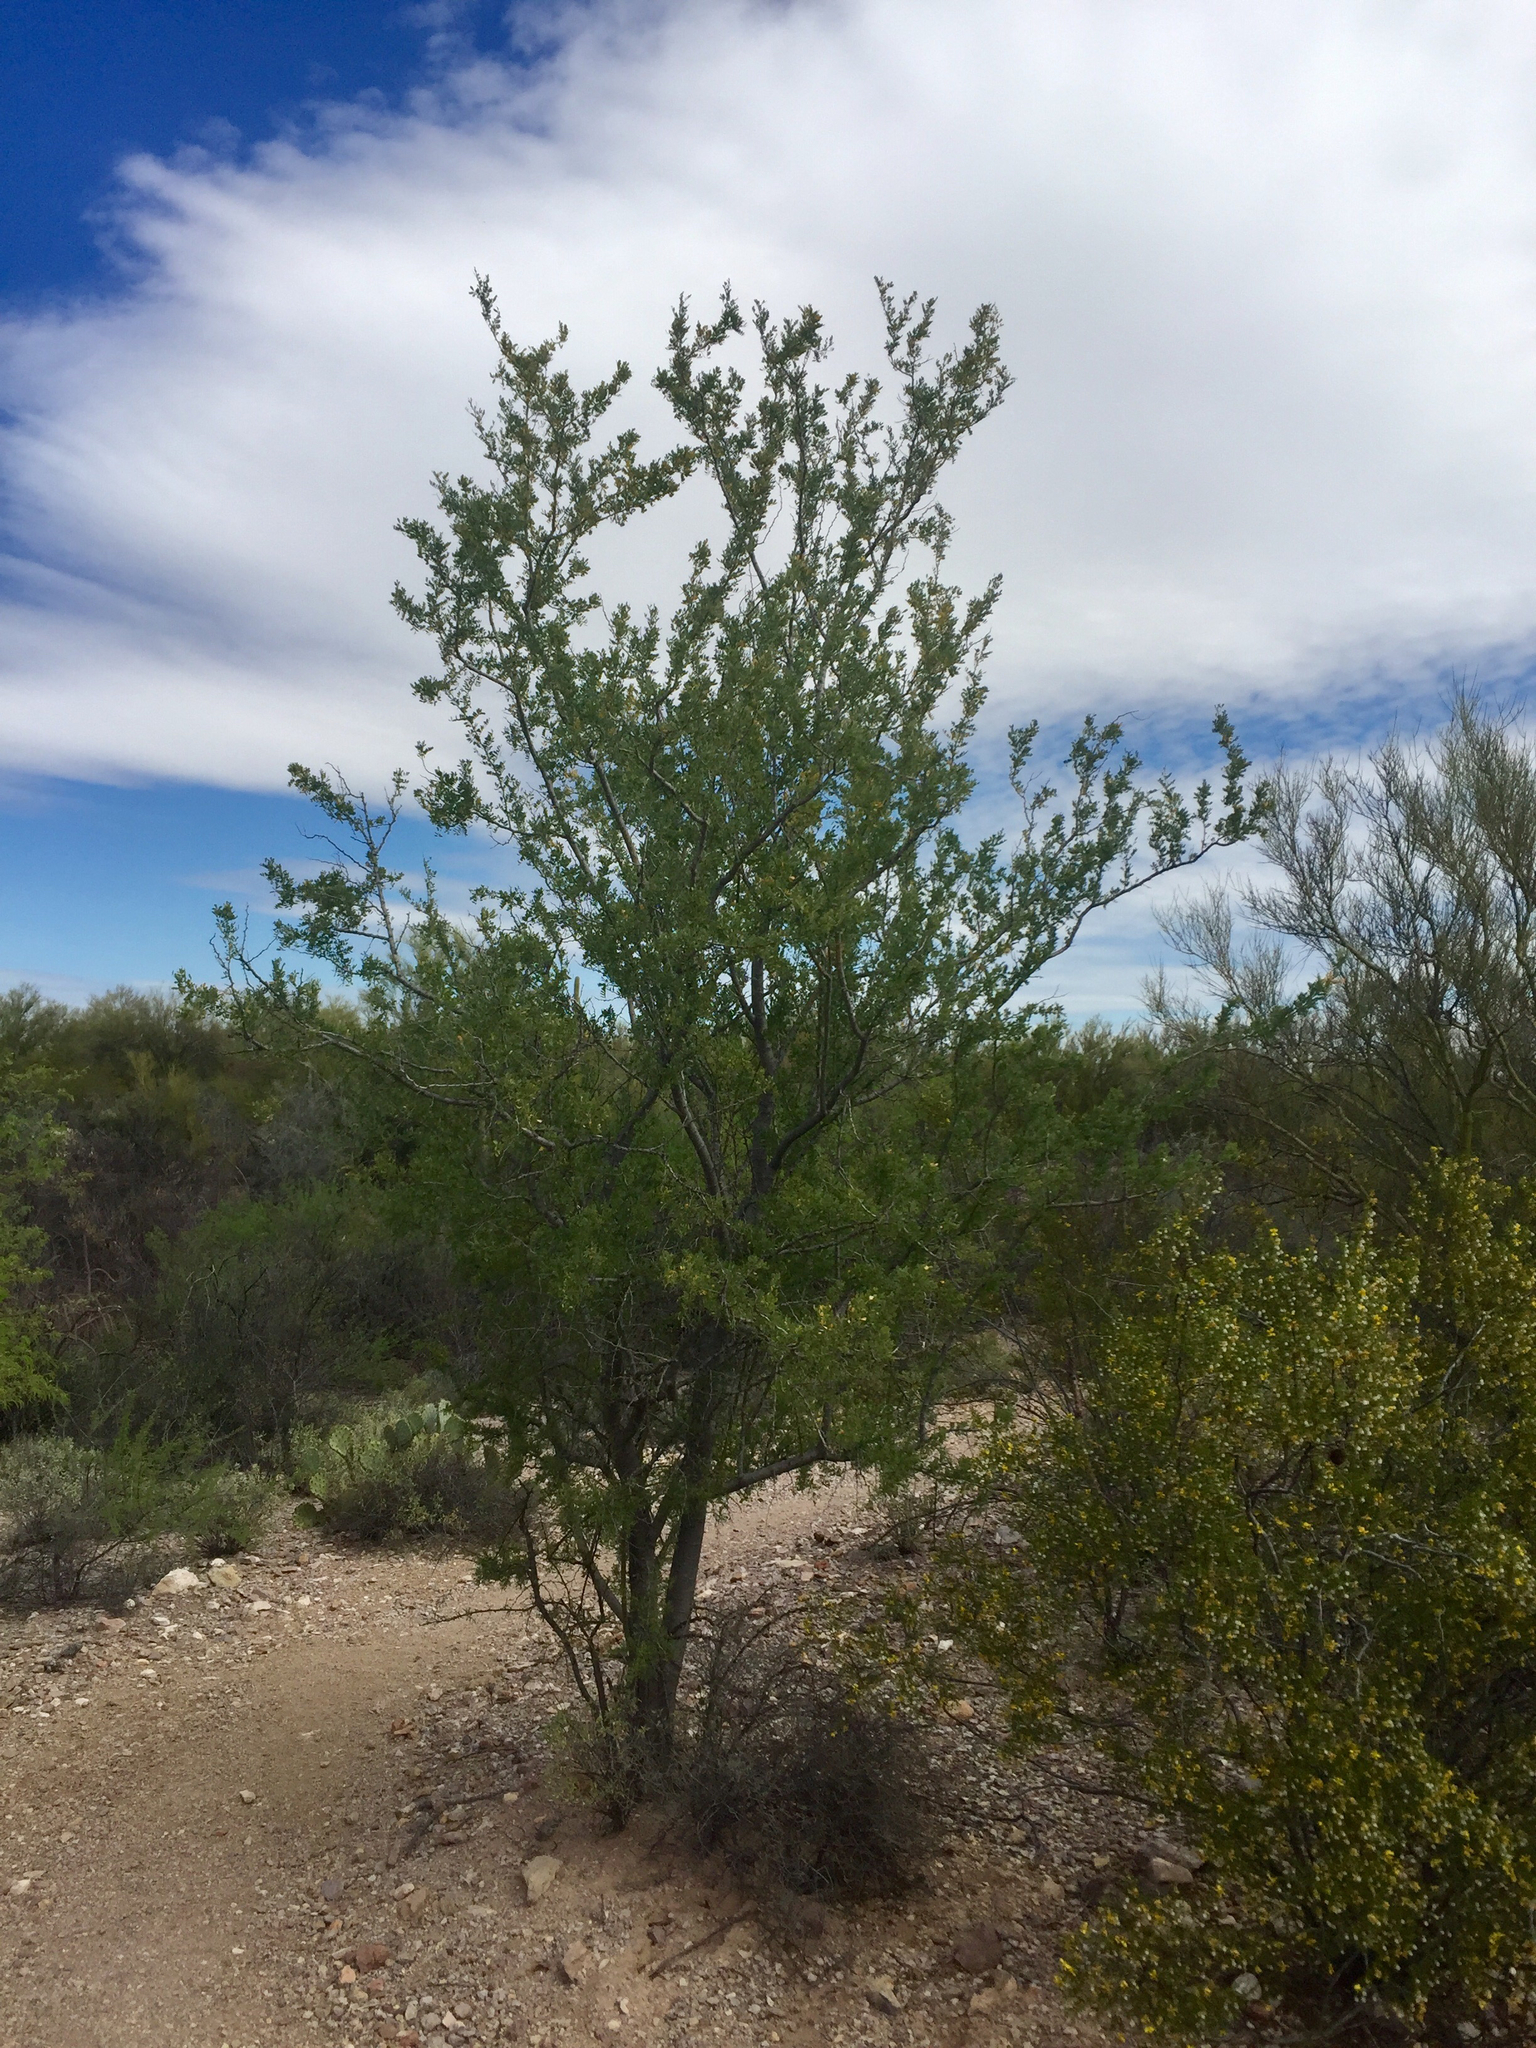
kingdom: Plantae
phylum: Tracheophyta
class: Magnoliopsida
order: Fabales
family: Fabaceae
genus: Olneya
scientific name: Olneya tesota
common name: Desert ironwood
